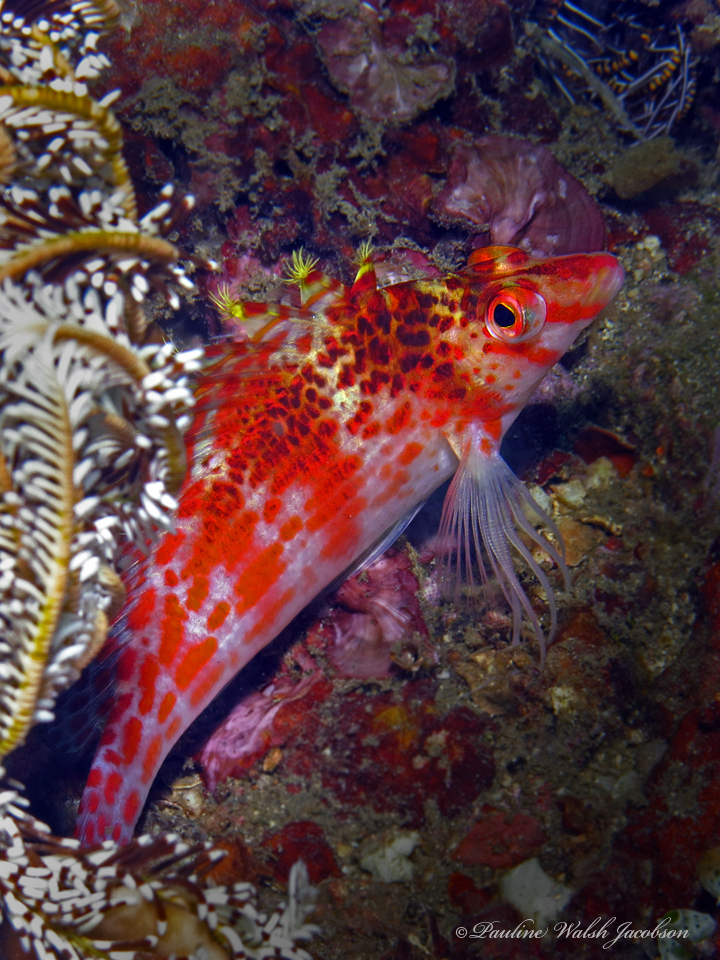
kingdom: Animalia
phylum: Chordata
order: Perciformes
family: Cirrhitidae
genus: Cirrhitichthys
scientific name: Cirrhitichthys falco
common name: Coral hawkfish
